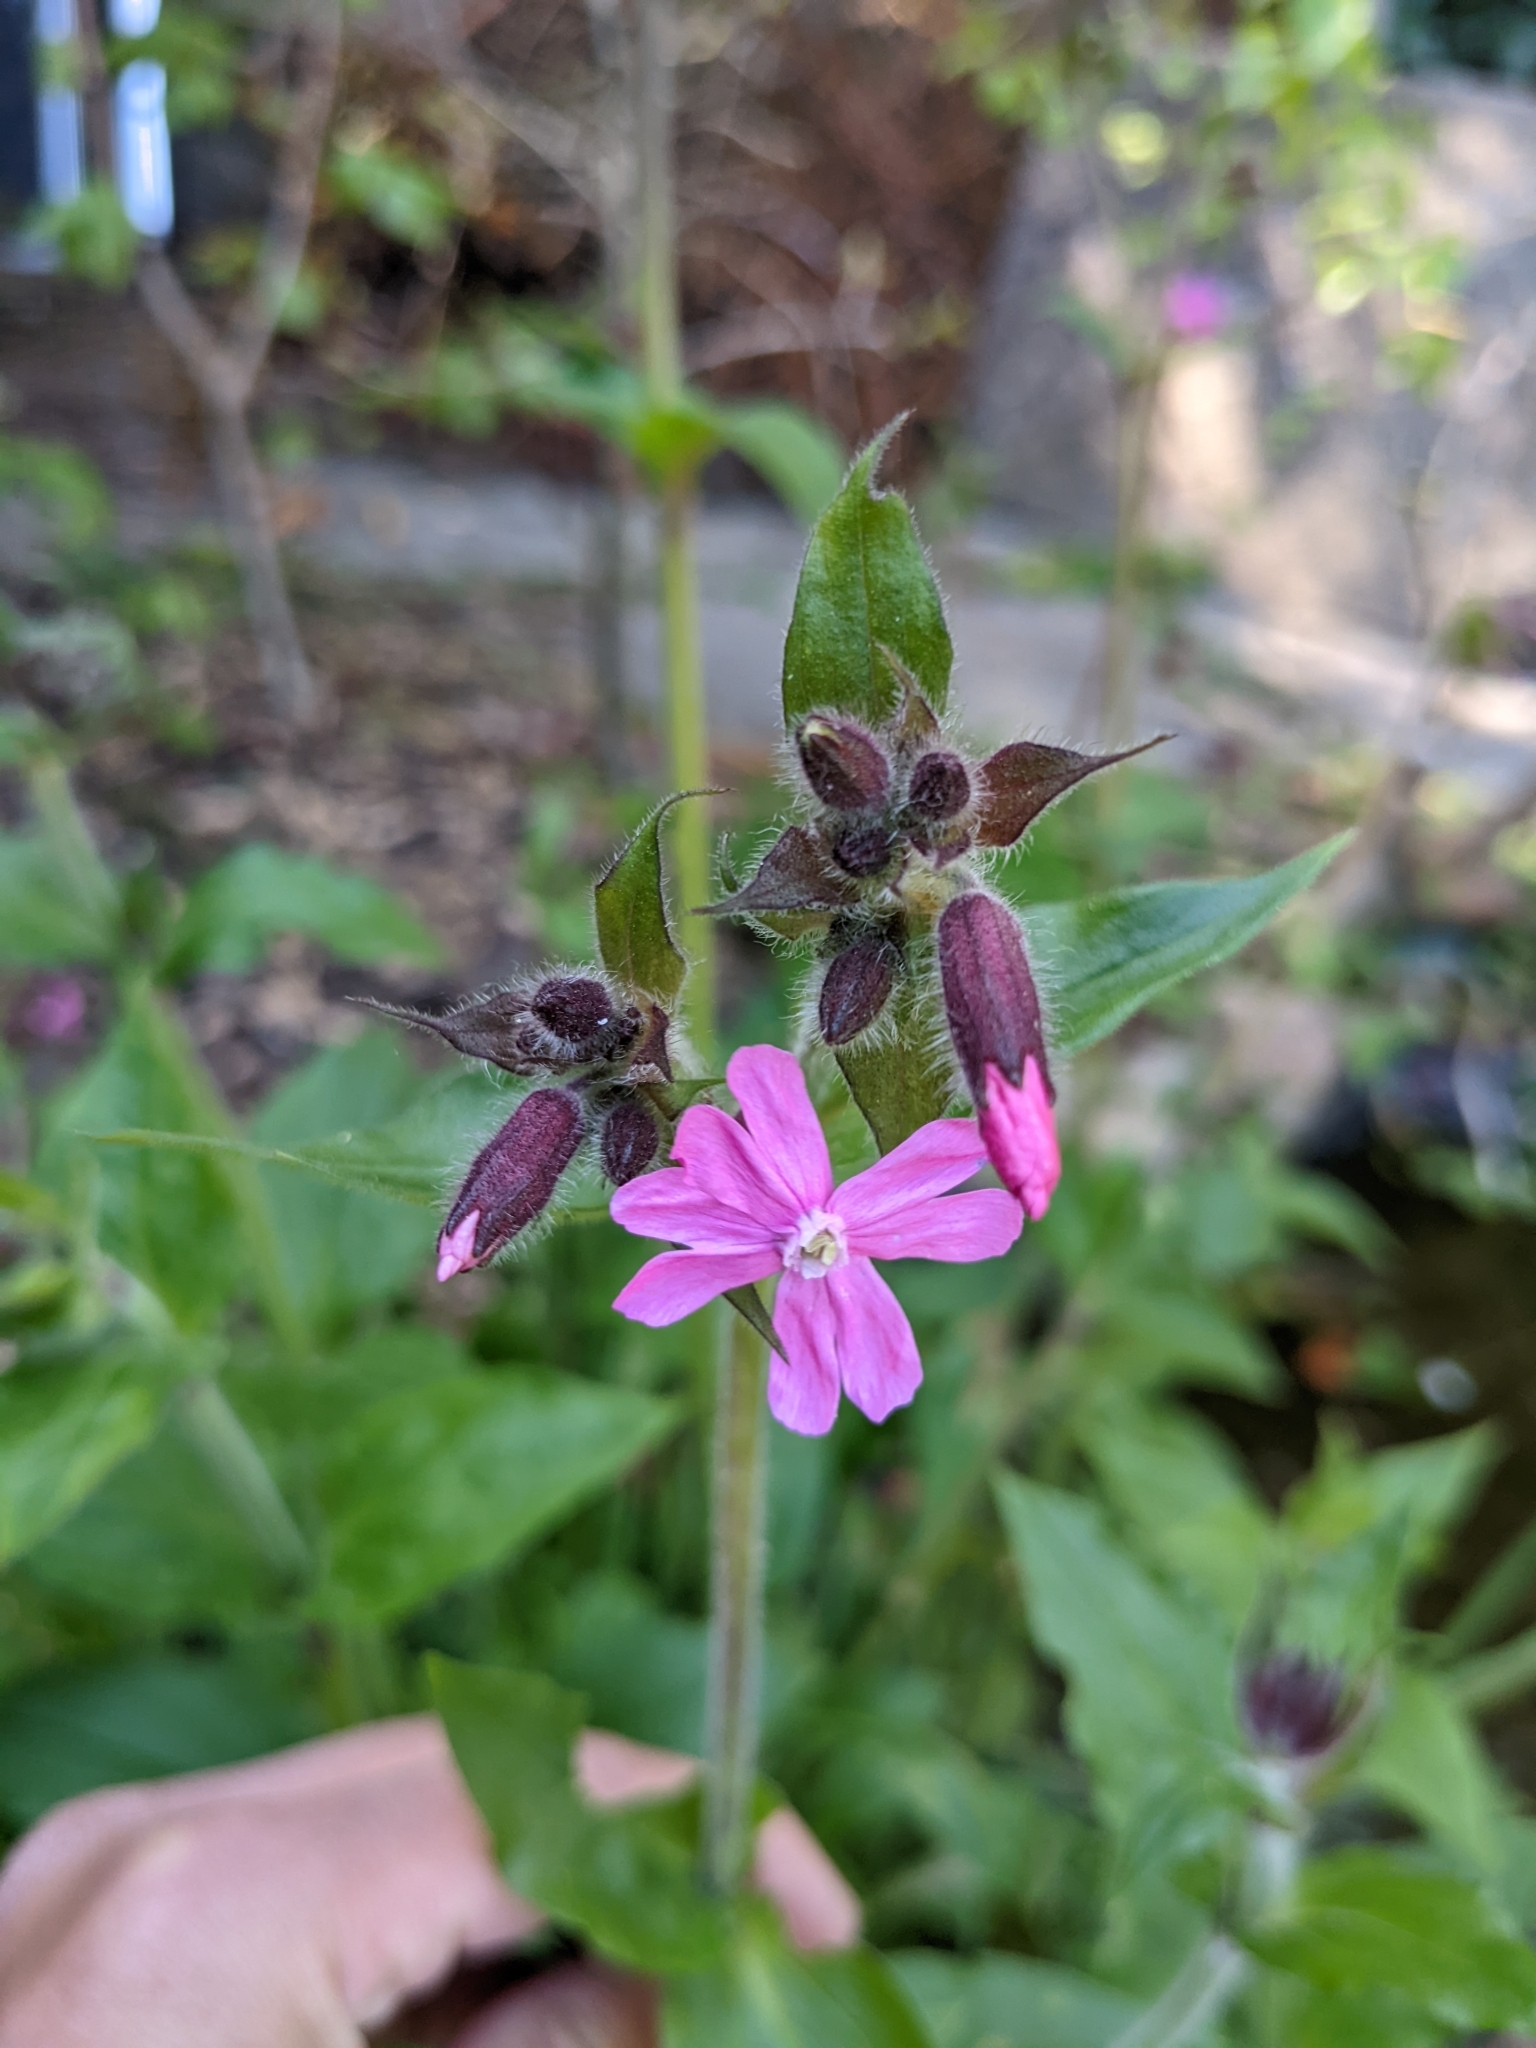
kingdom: Plantae
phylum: Tracheophyta
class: Magnoliopsida
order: Caryophyllales
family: Caryophyllaceae
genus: Silene
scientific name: Silene dioica
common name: Red campion
